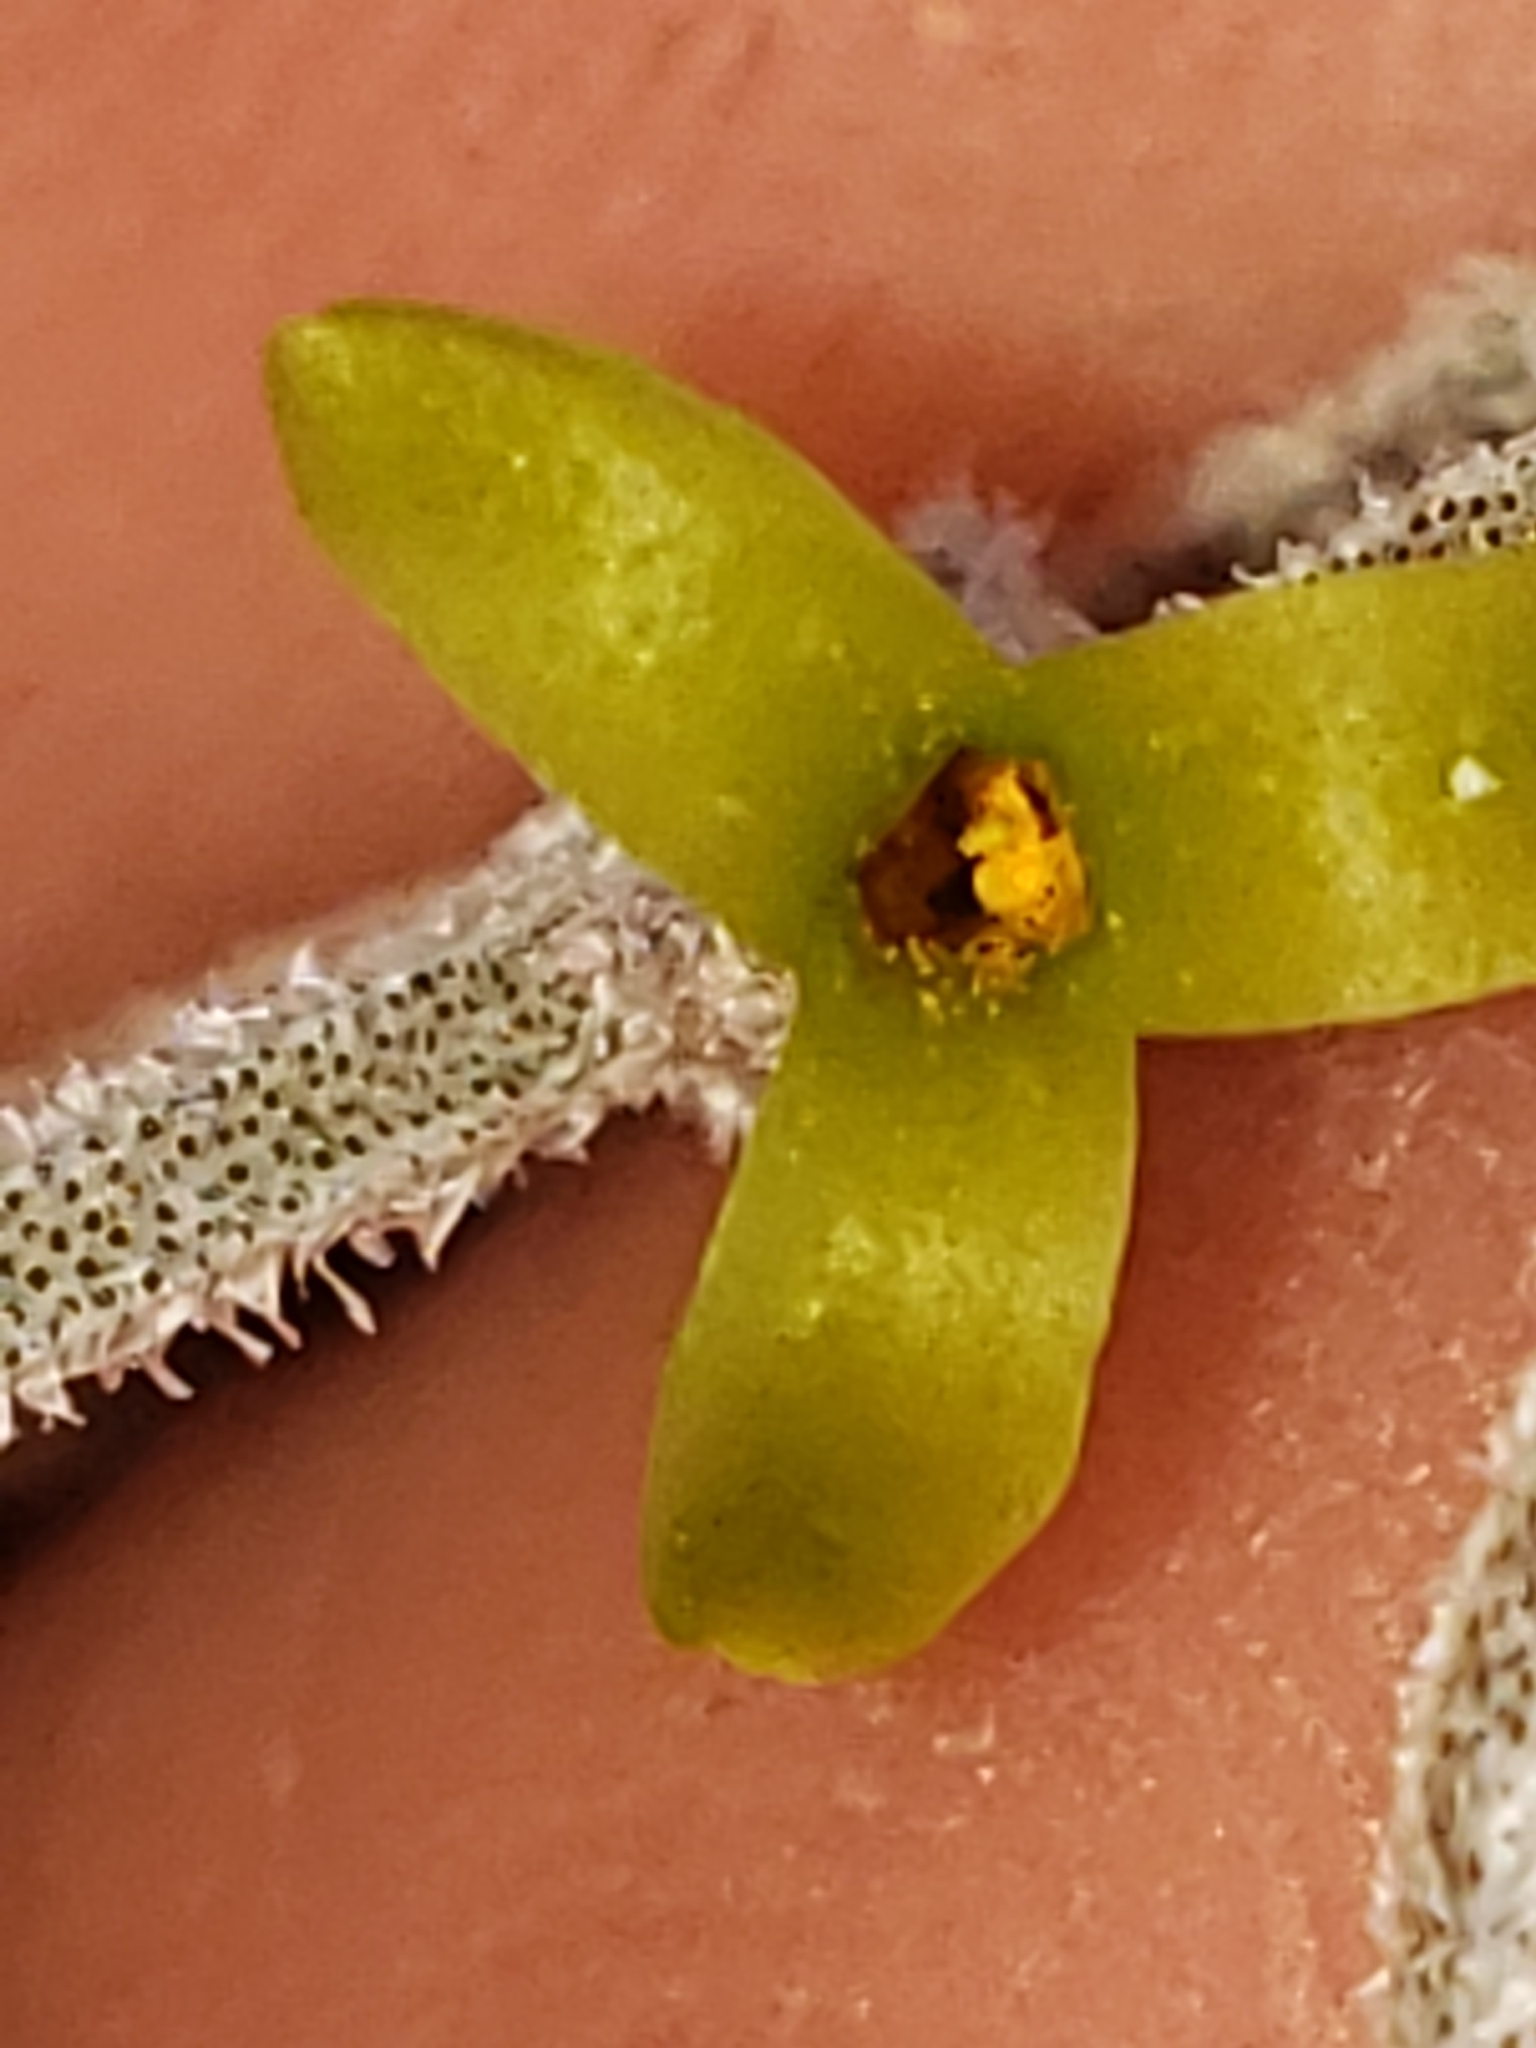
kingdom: Plantae
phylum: Tracheophyta
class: Liliopsida
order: Poales
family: Bromeliaceae
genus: Tillandsia
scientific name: Tillandsia usneoides
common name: Spanish moss
